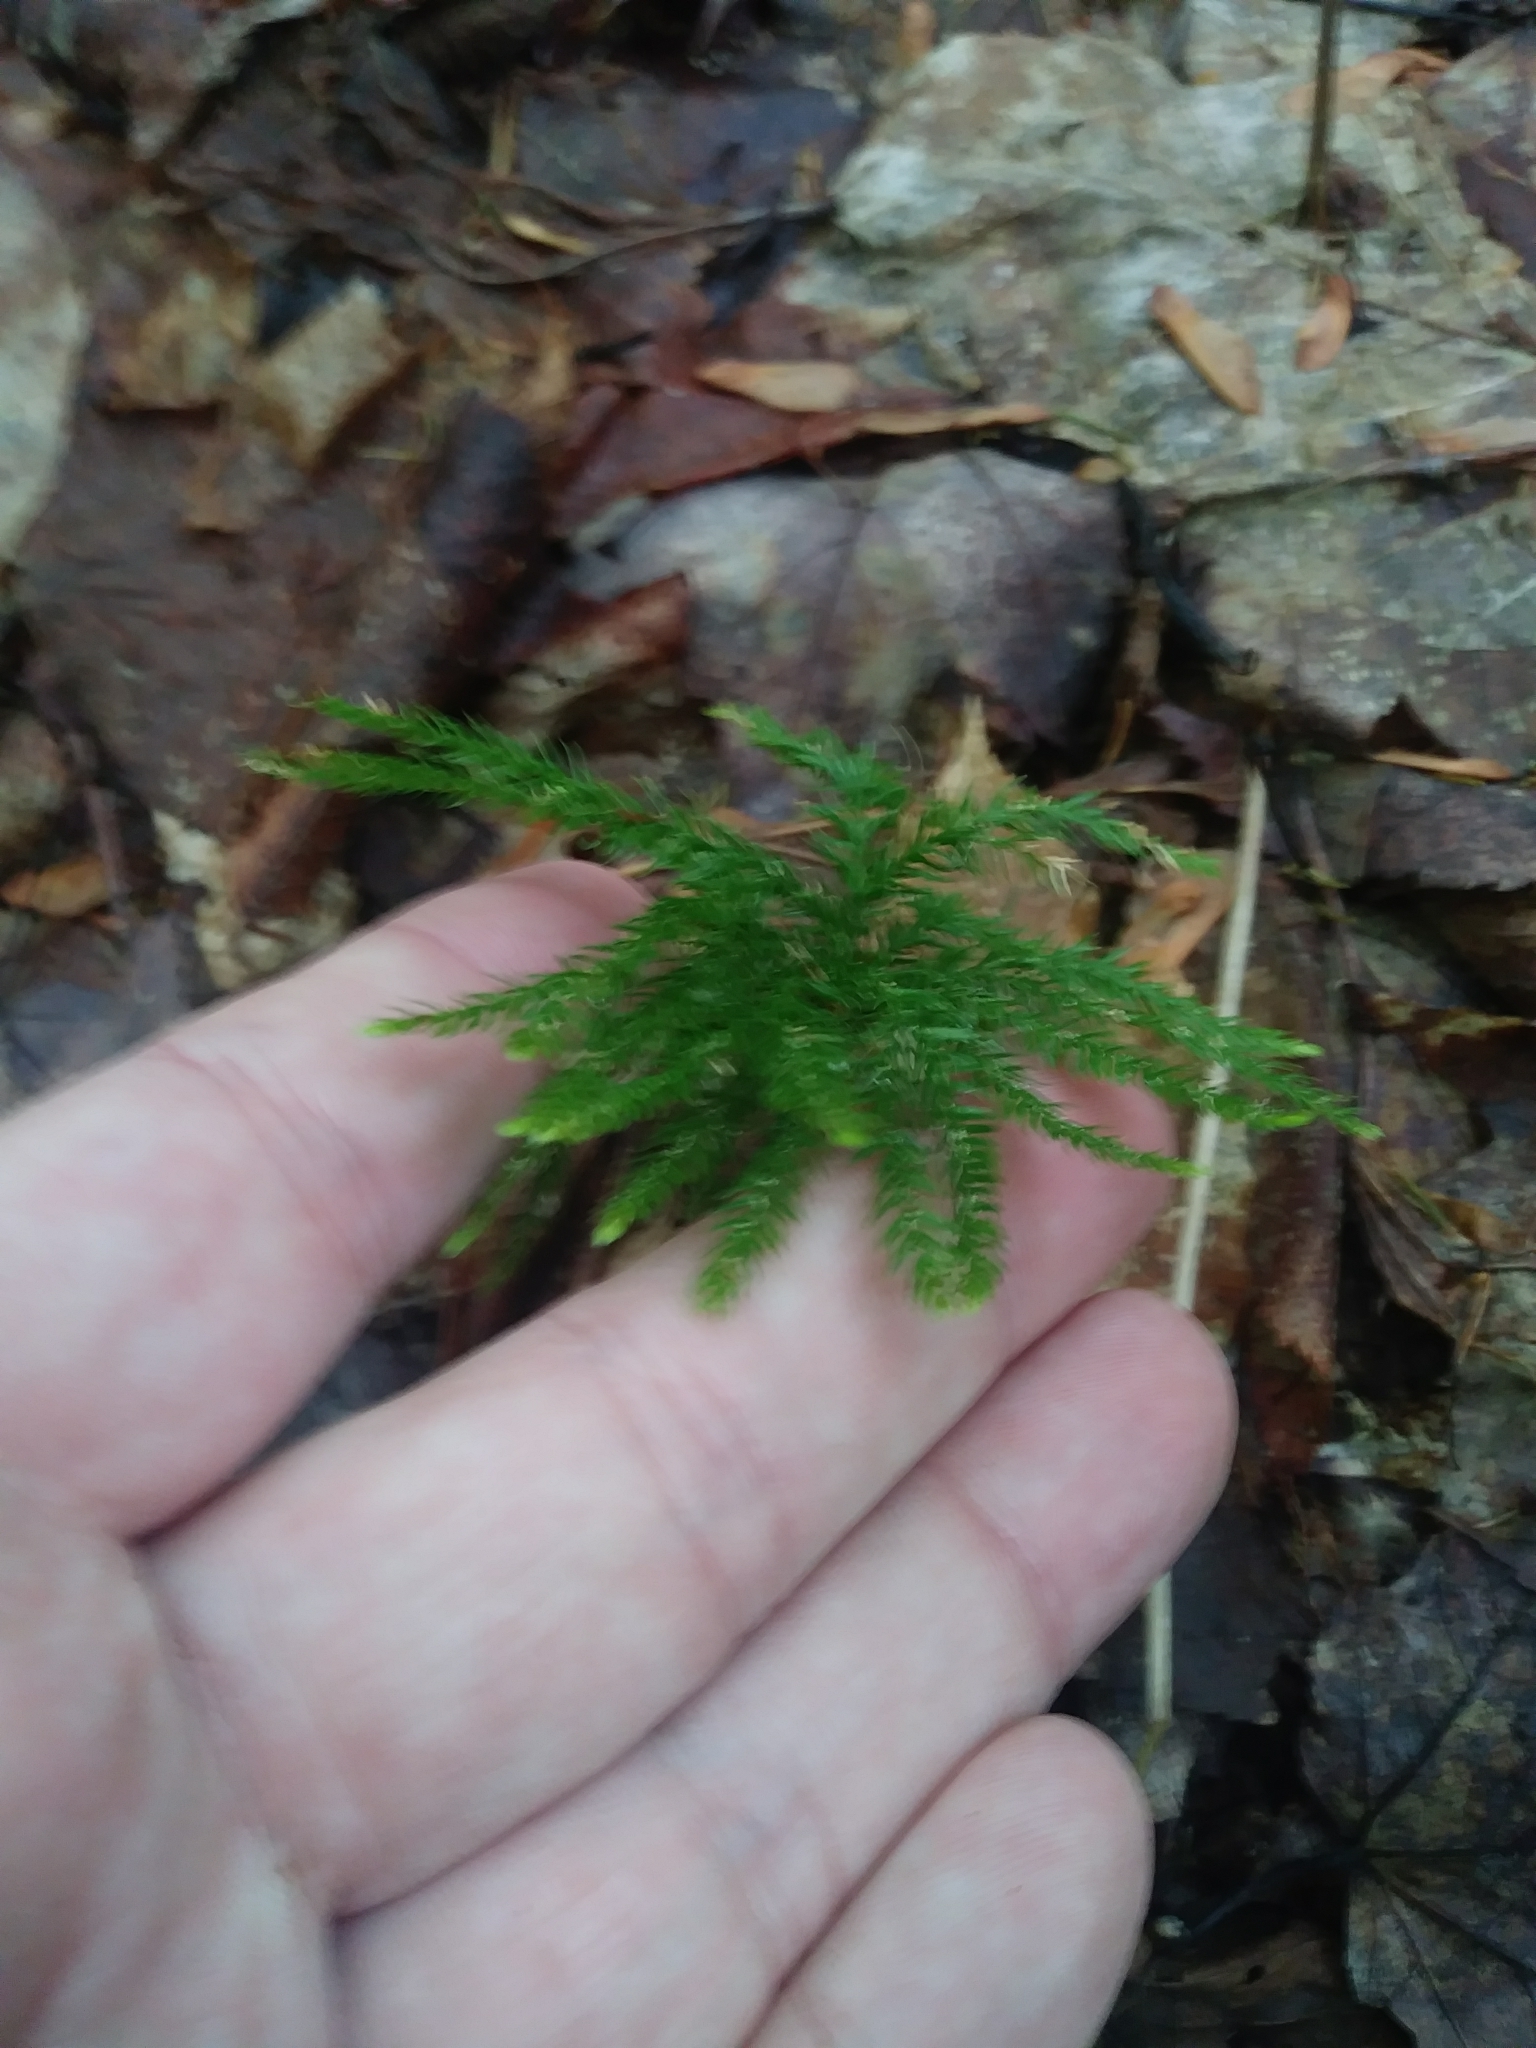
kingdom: Plantae
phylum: Tracheophyta
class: Lycopodiopsida
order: Lycopodiales
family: Lycopodiaceae
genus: Dendrolycopodium
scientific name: Dendrolycopodium obscurum
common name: Common ground-pine
